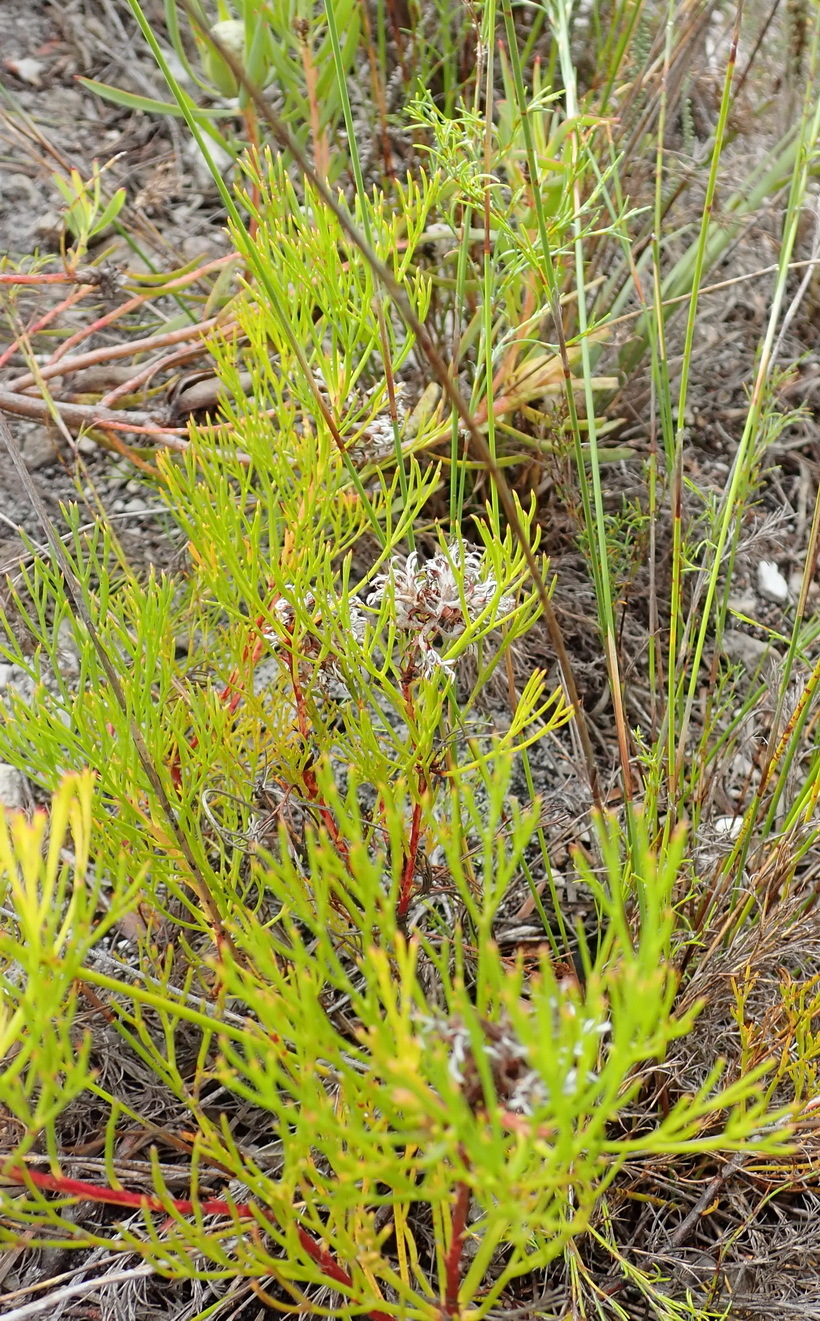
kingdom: Plantae
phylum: Tracheophyta
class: Magnoliopsida
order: Proteales
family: Proteaceae
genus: Serruria
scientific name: Serruria rubricaulis
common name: Red-stem spiderhead
